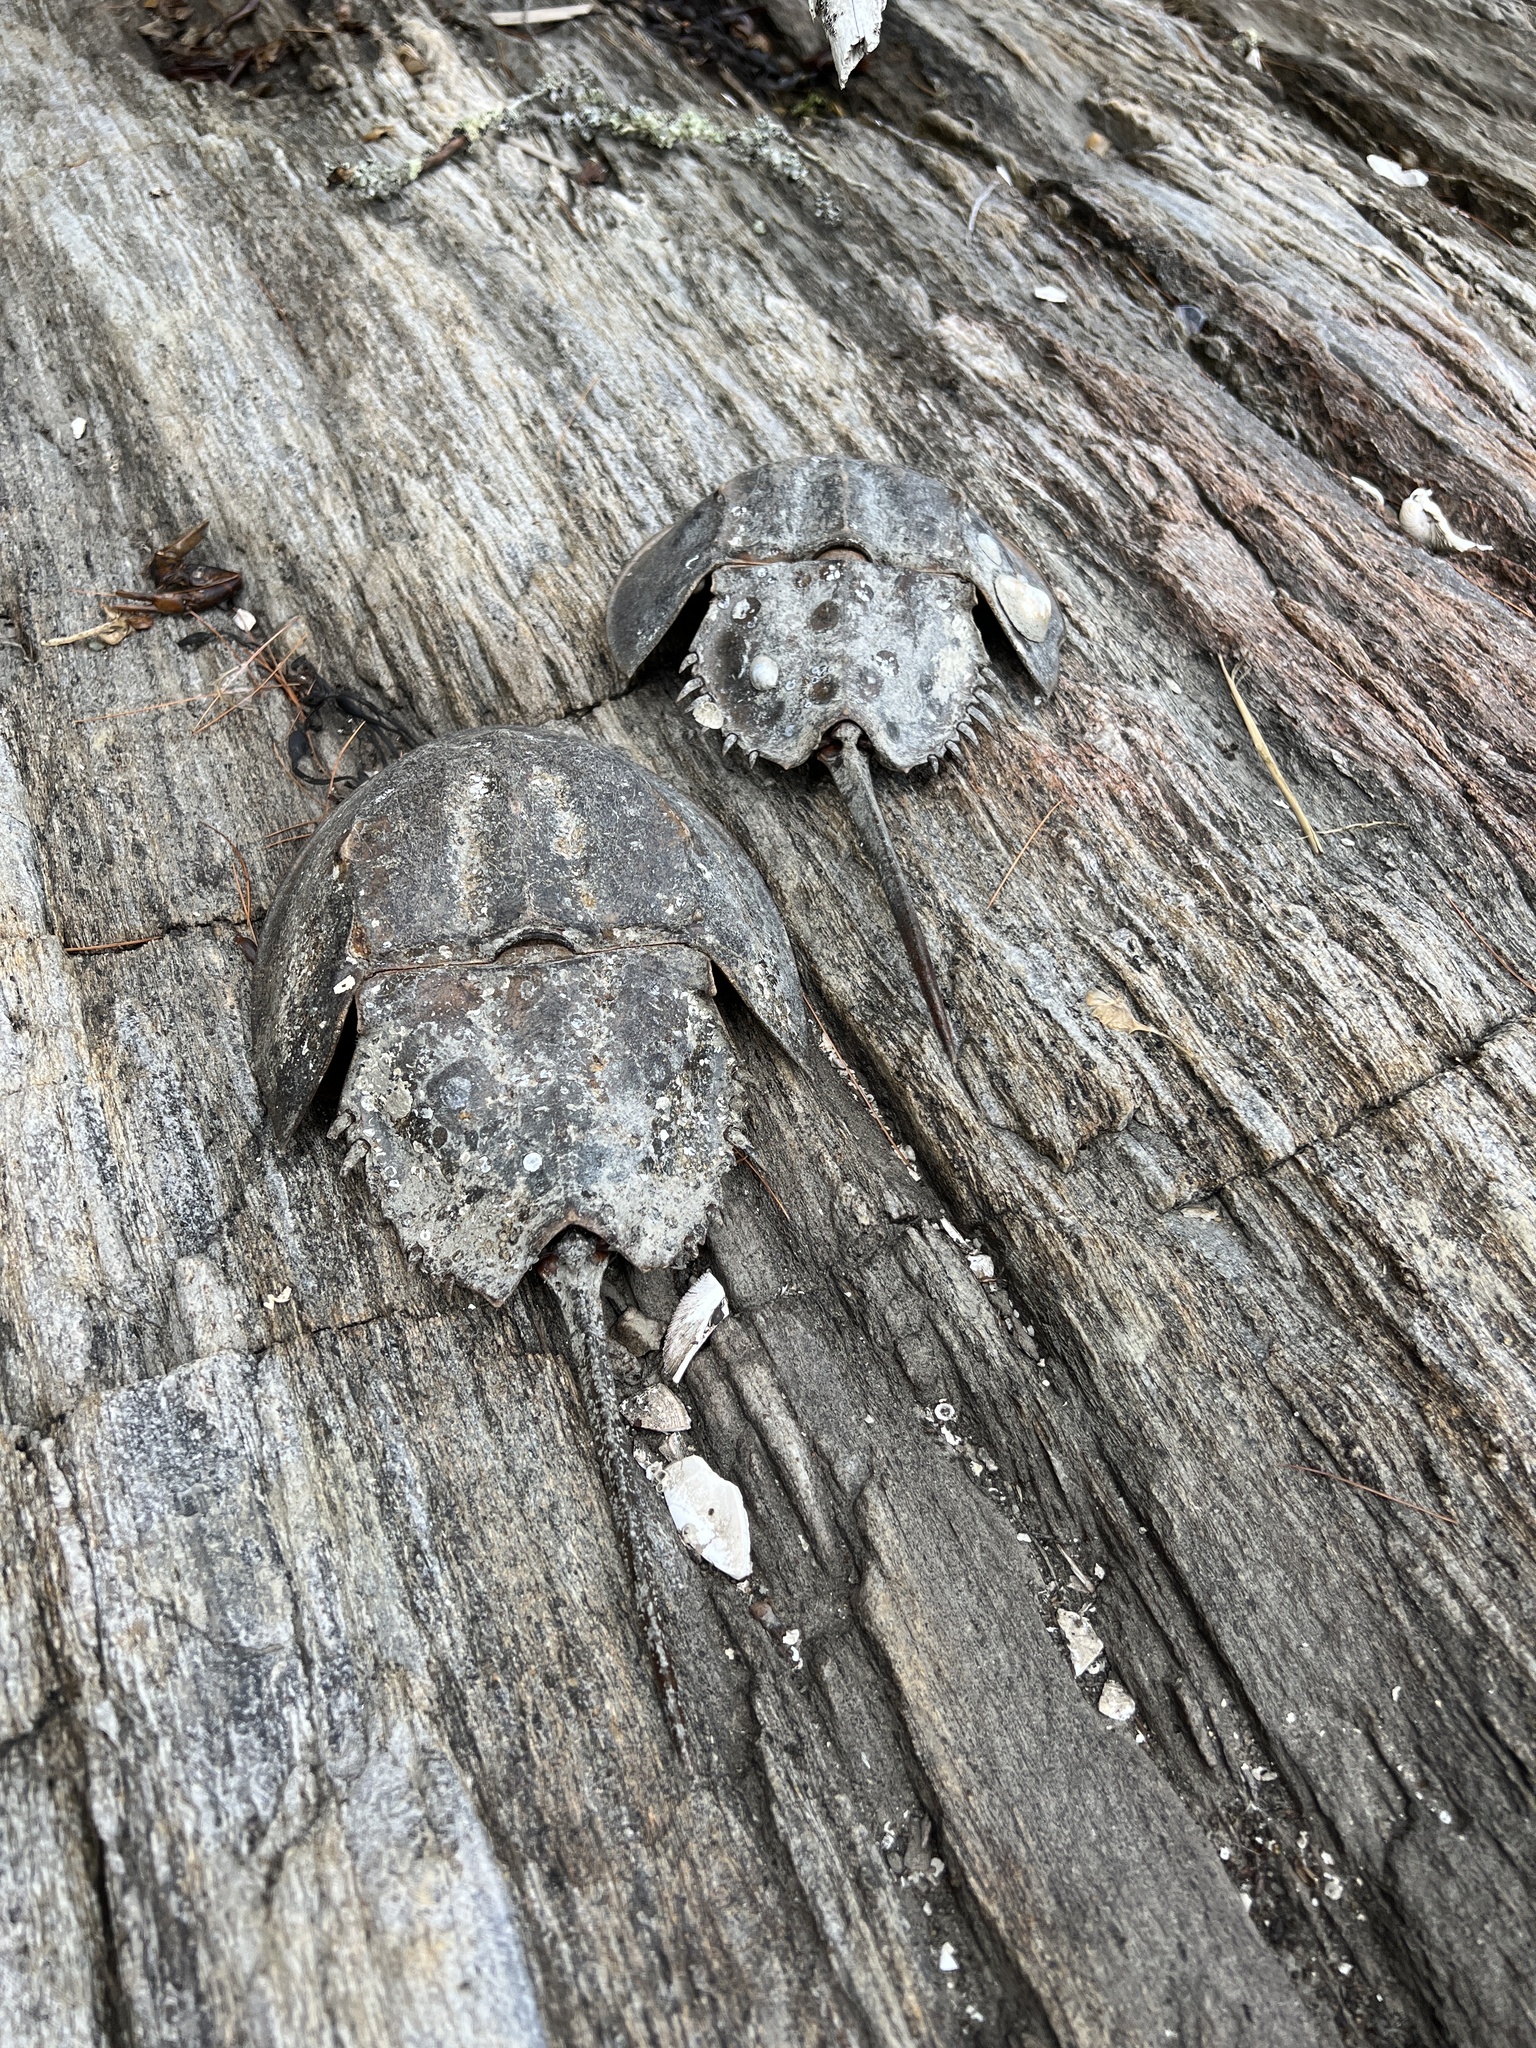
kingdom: Animalia
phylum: Arthropoda
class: Merostomata
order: Xiphosurida
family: Limulidae
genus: Limulus
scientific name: Limulus polyphemus
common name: Horseshoe crab
